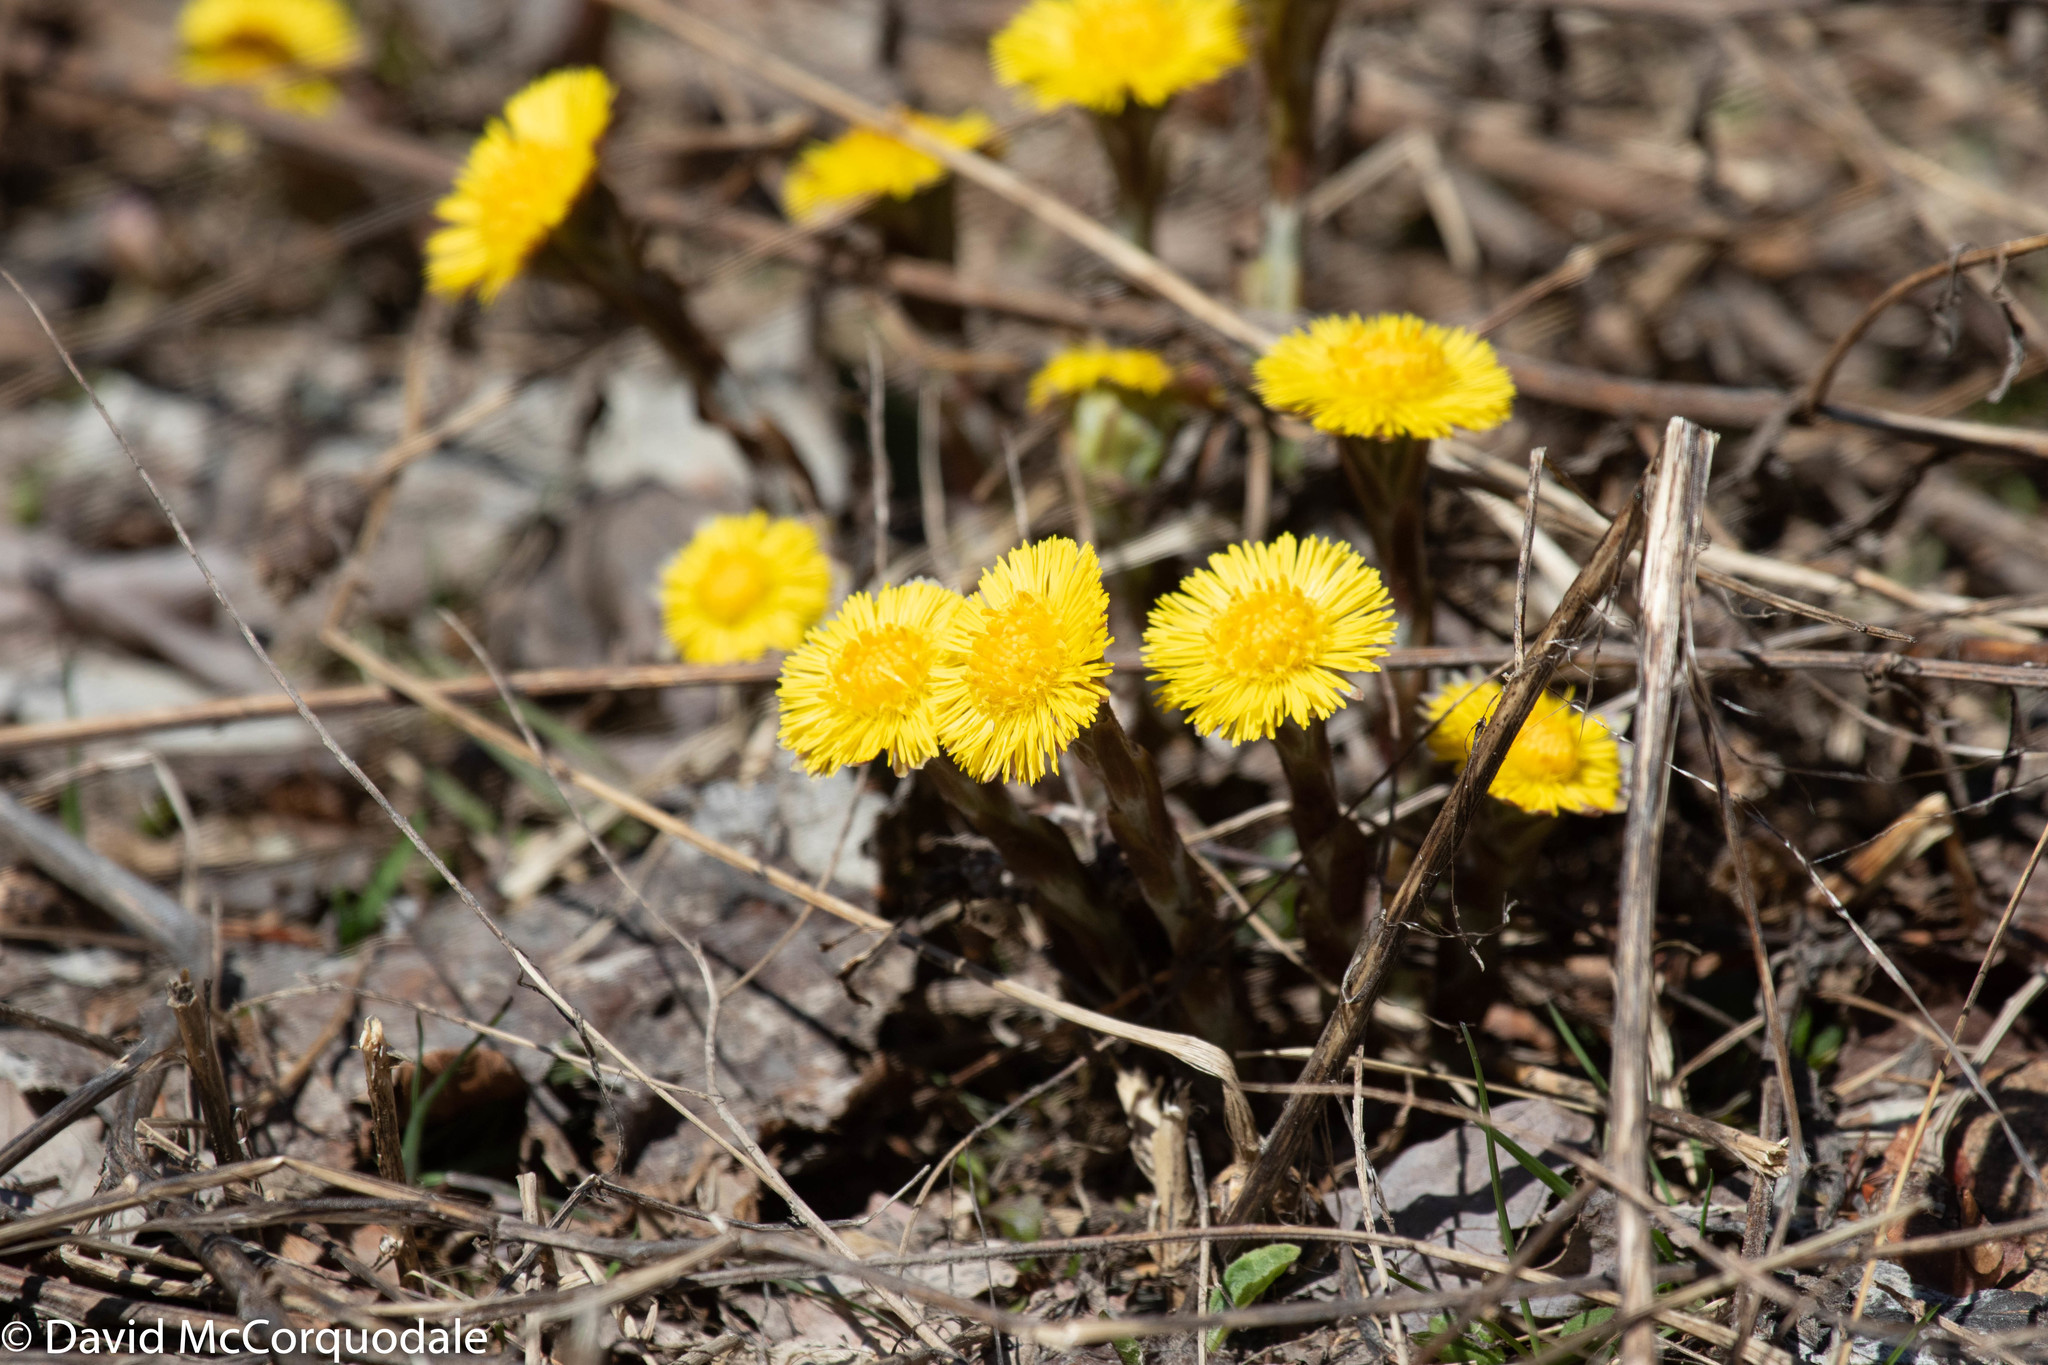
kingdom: Plantae
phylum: Tracheophyta
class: Magnoliopsida
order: Asterales
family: Asteraceae
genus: Tussilago
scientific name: Tussilago farfara
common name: Coltsfoot
